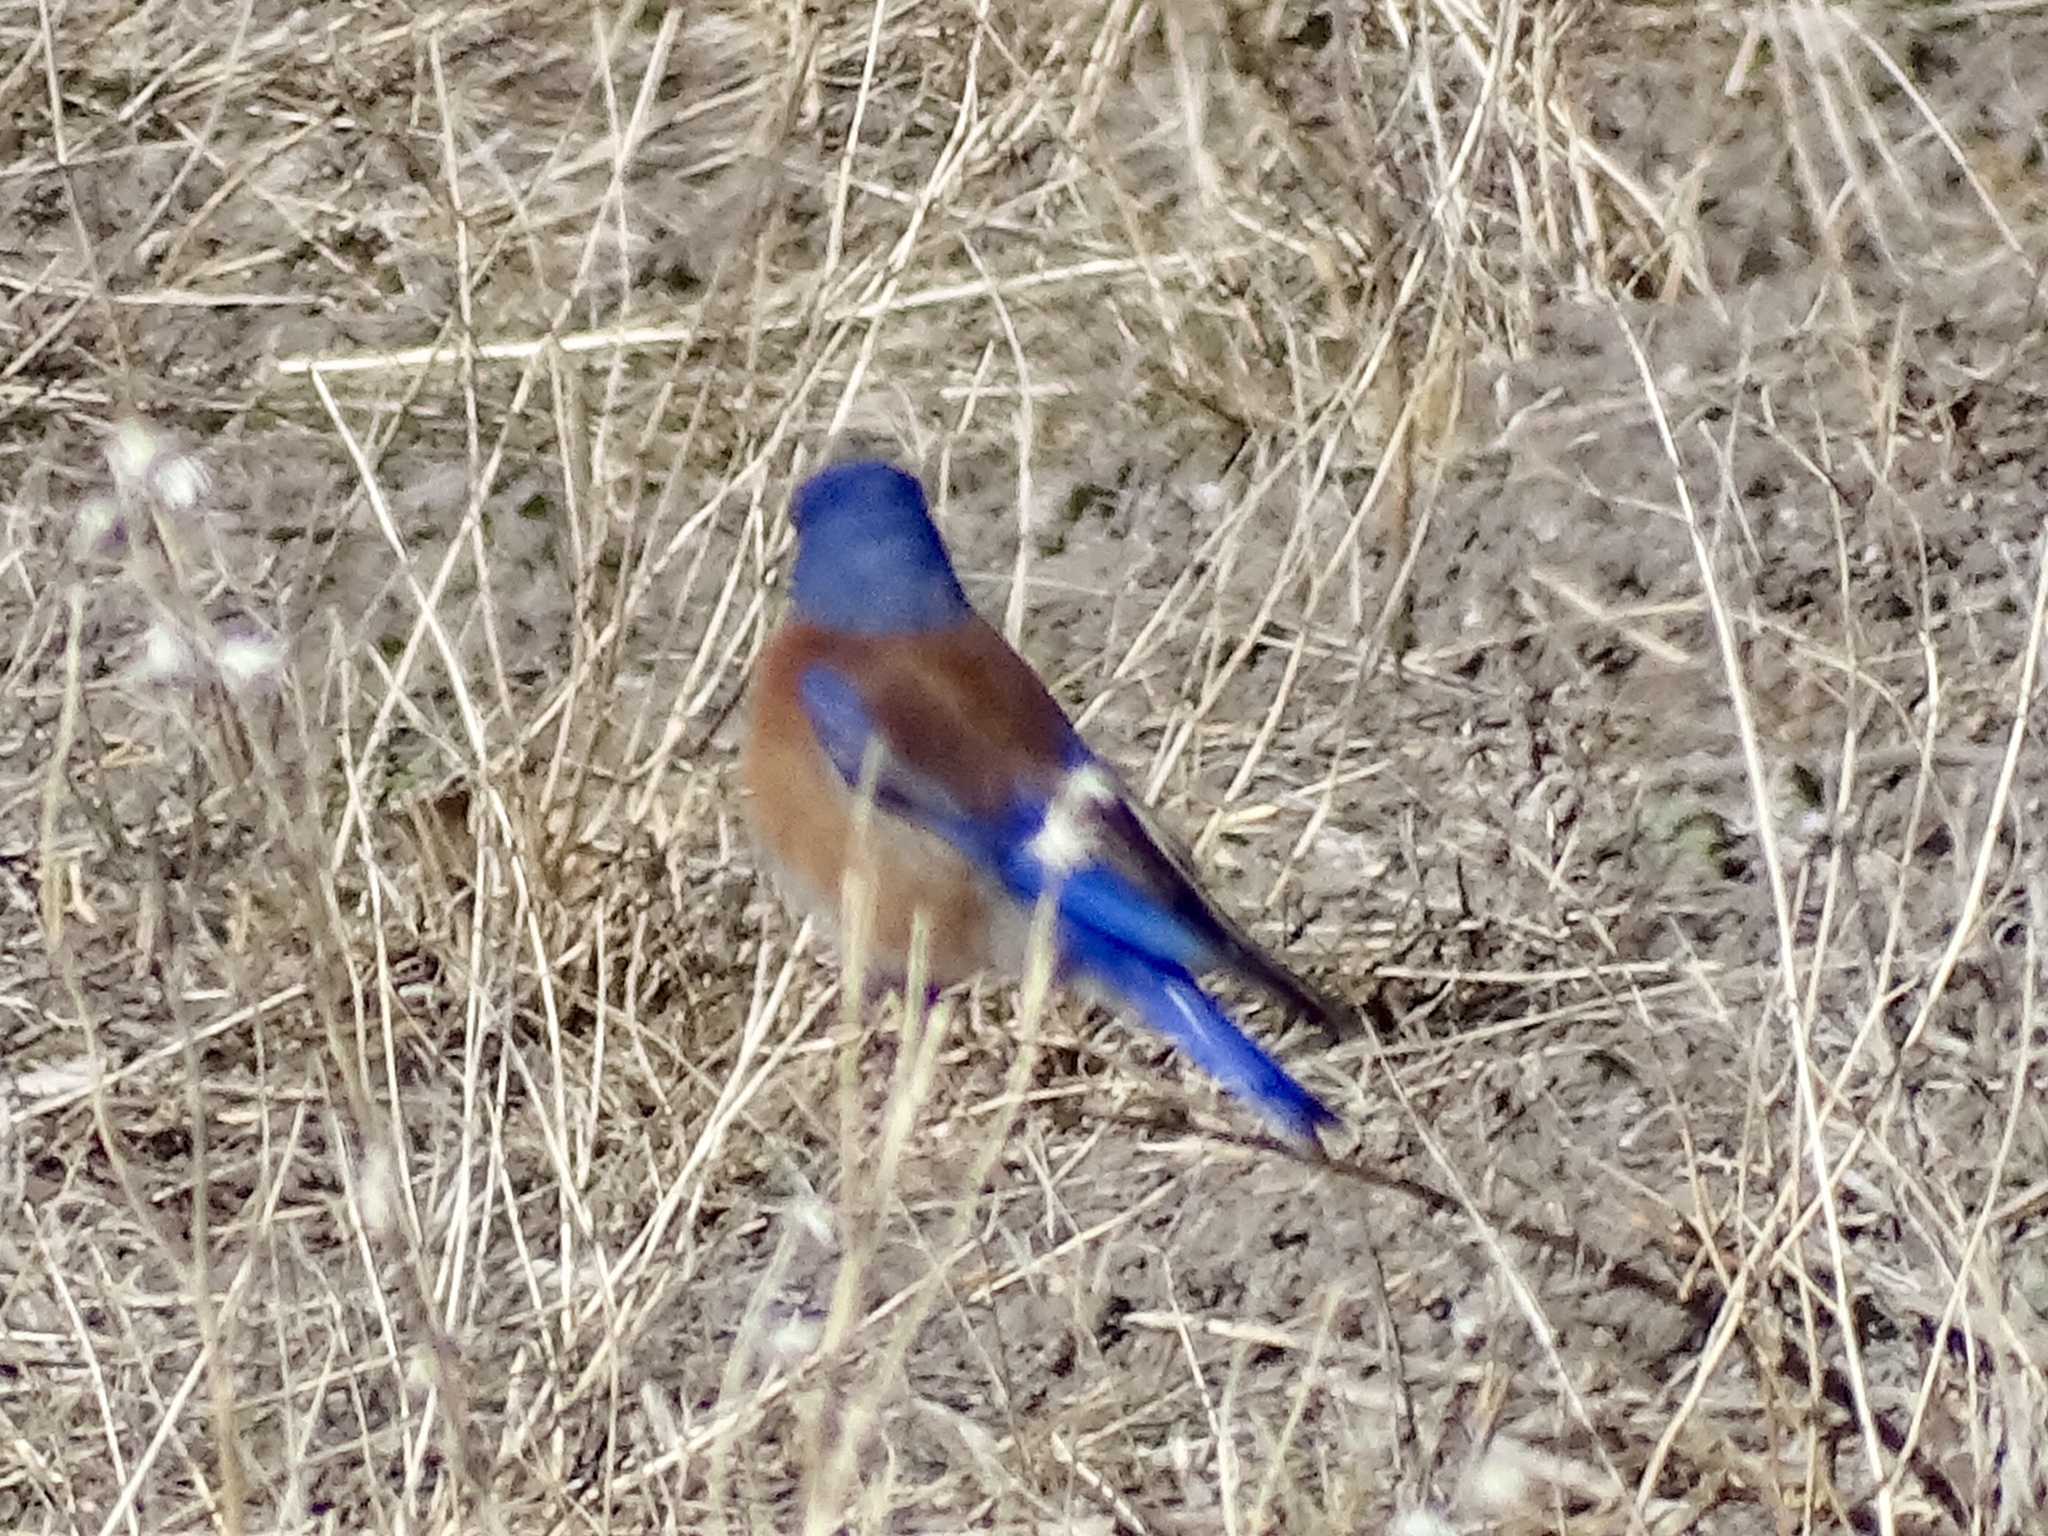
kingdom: Animalia
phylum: Chordata
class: Aves
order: Passeriformes
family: Turdidae
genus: Sialia
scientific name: Sialia mexicana
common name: Western bluebird
